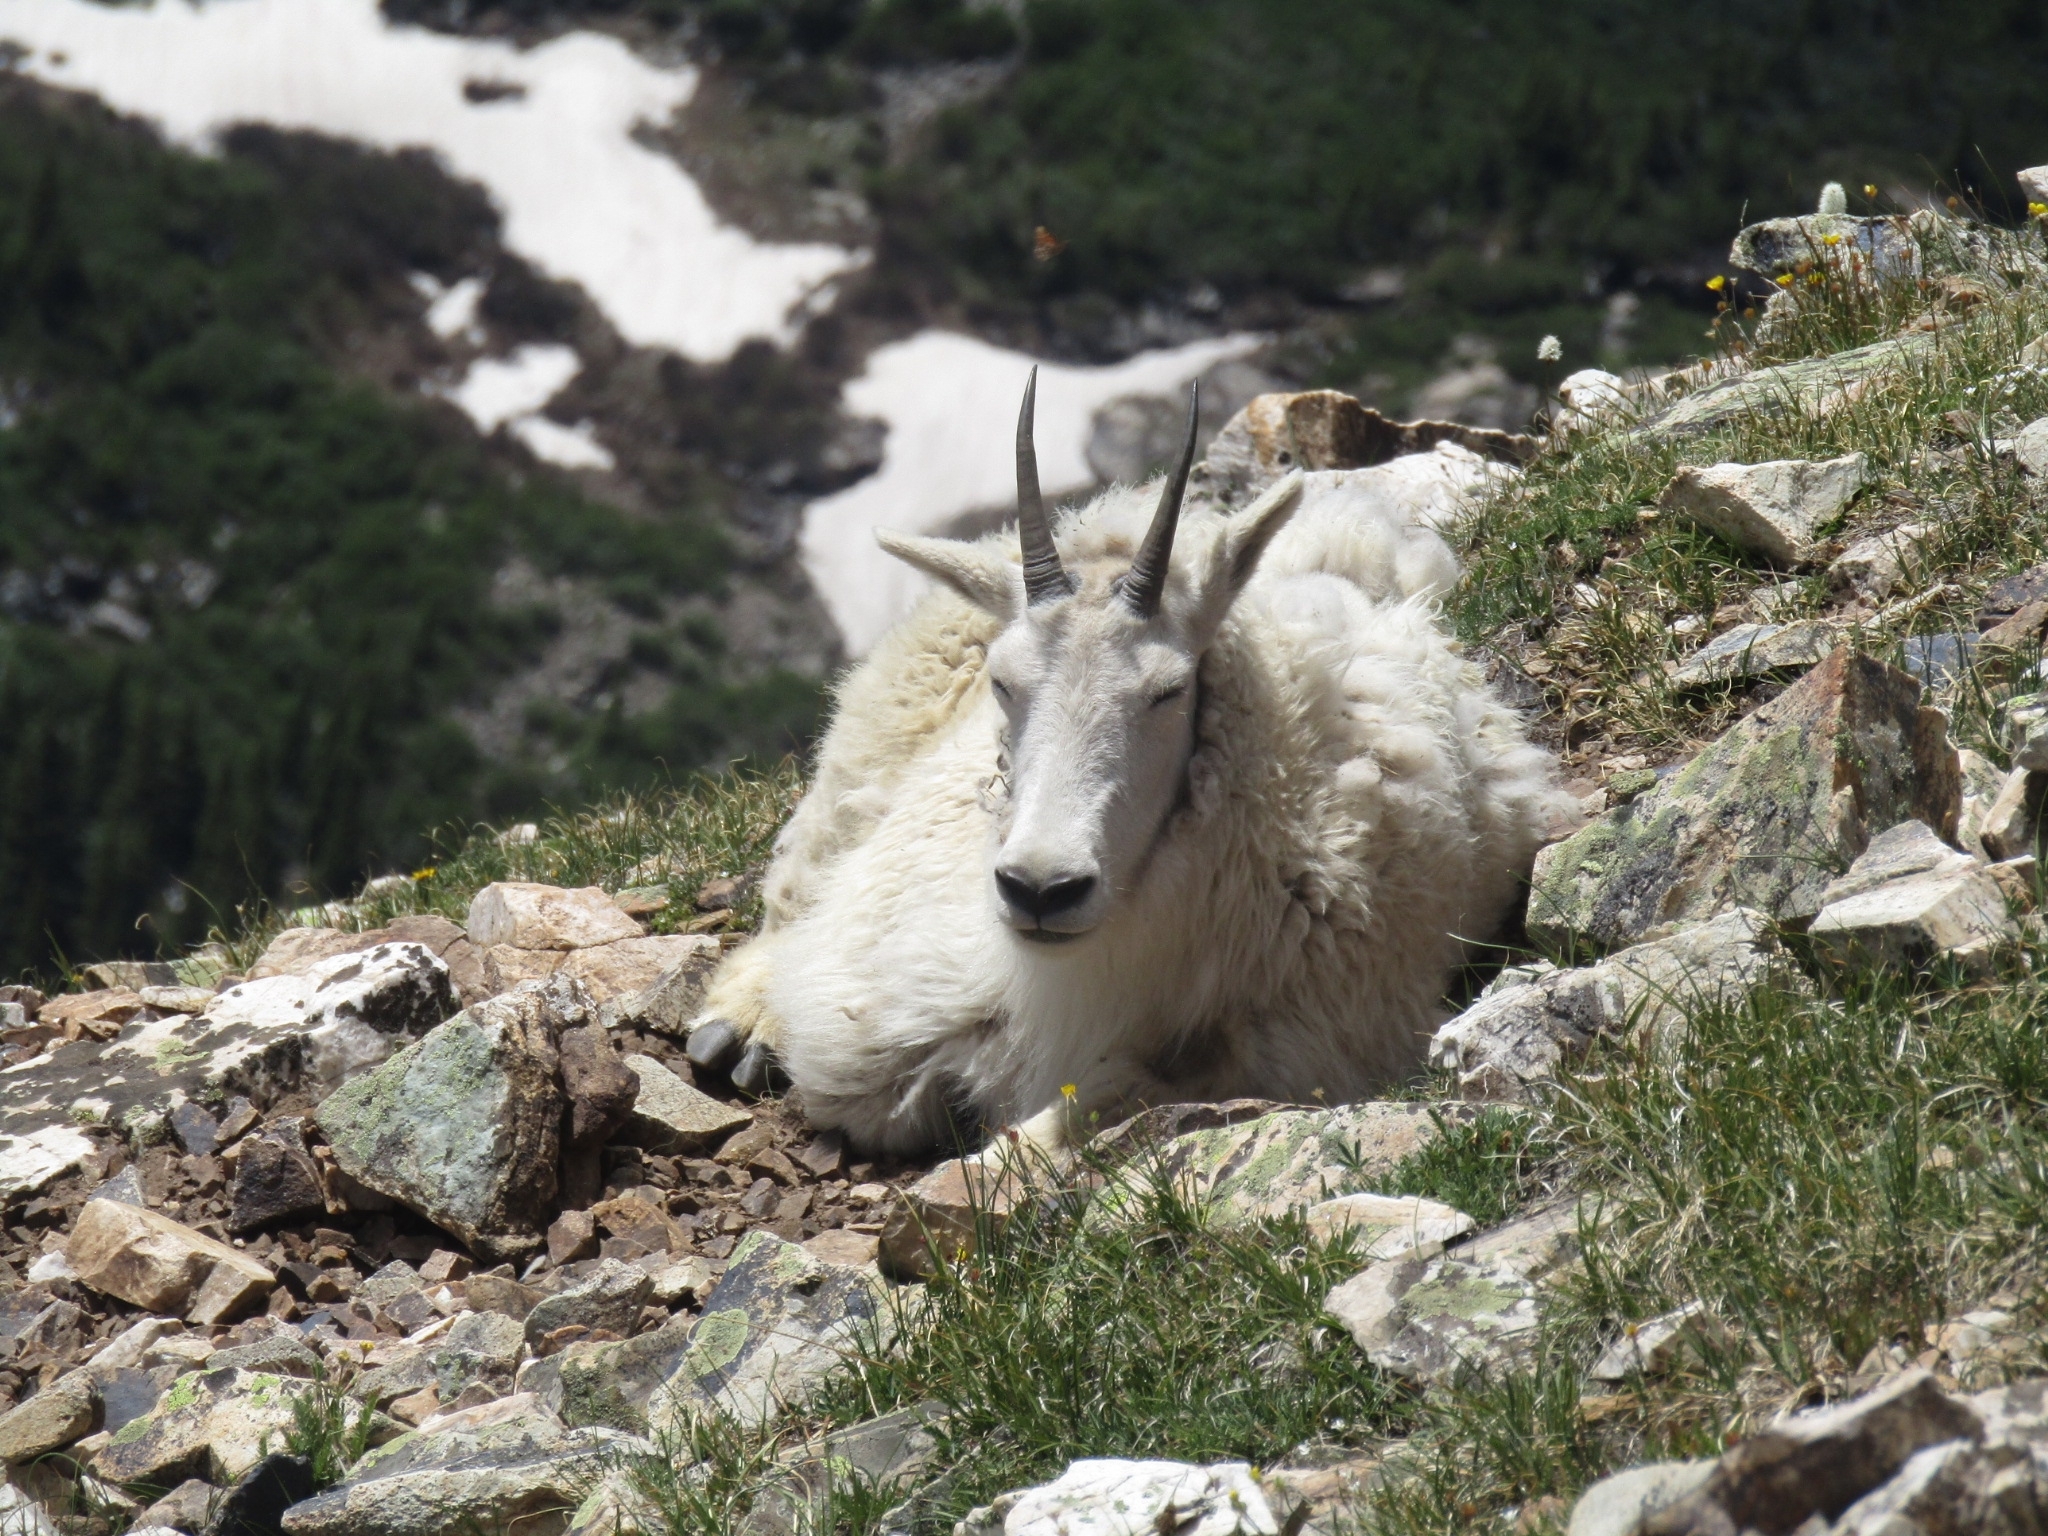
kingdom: Animalia
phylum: Chordata
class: Mammalia
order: Artiodactyla
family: Bovidae
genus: Oreamnos
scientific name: Oreamnos americanus
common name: Mountain goat
